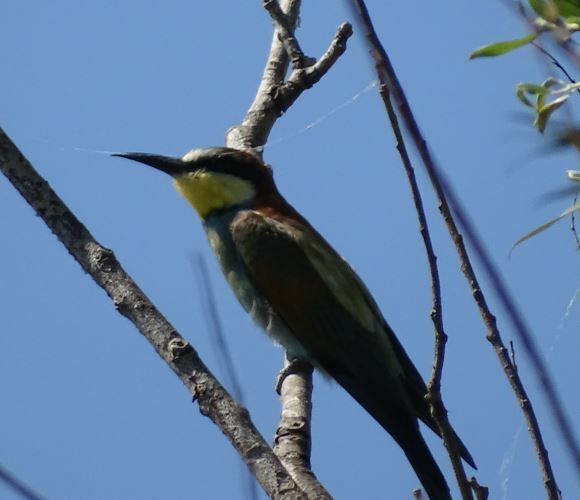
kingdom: Animalia
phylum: Chordata
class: Aves
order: Coraciiformes
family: Meropidae
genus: Merops
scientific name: Merops apiaster
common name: European bee-eater
